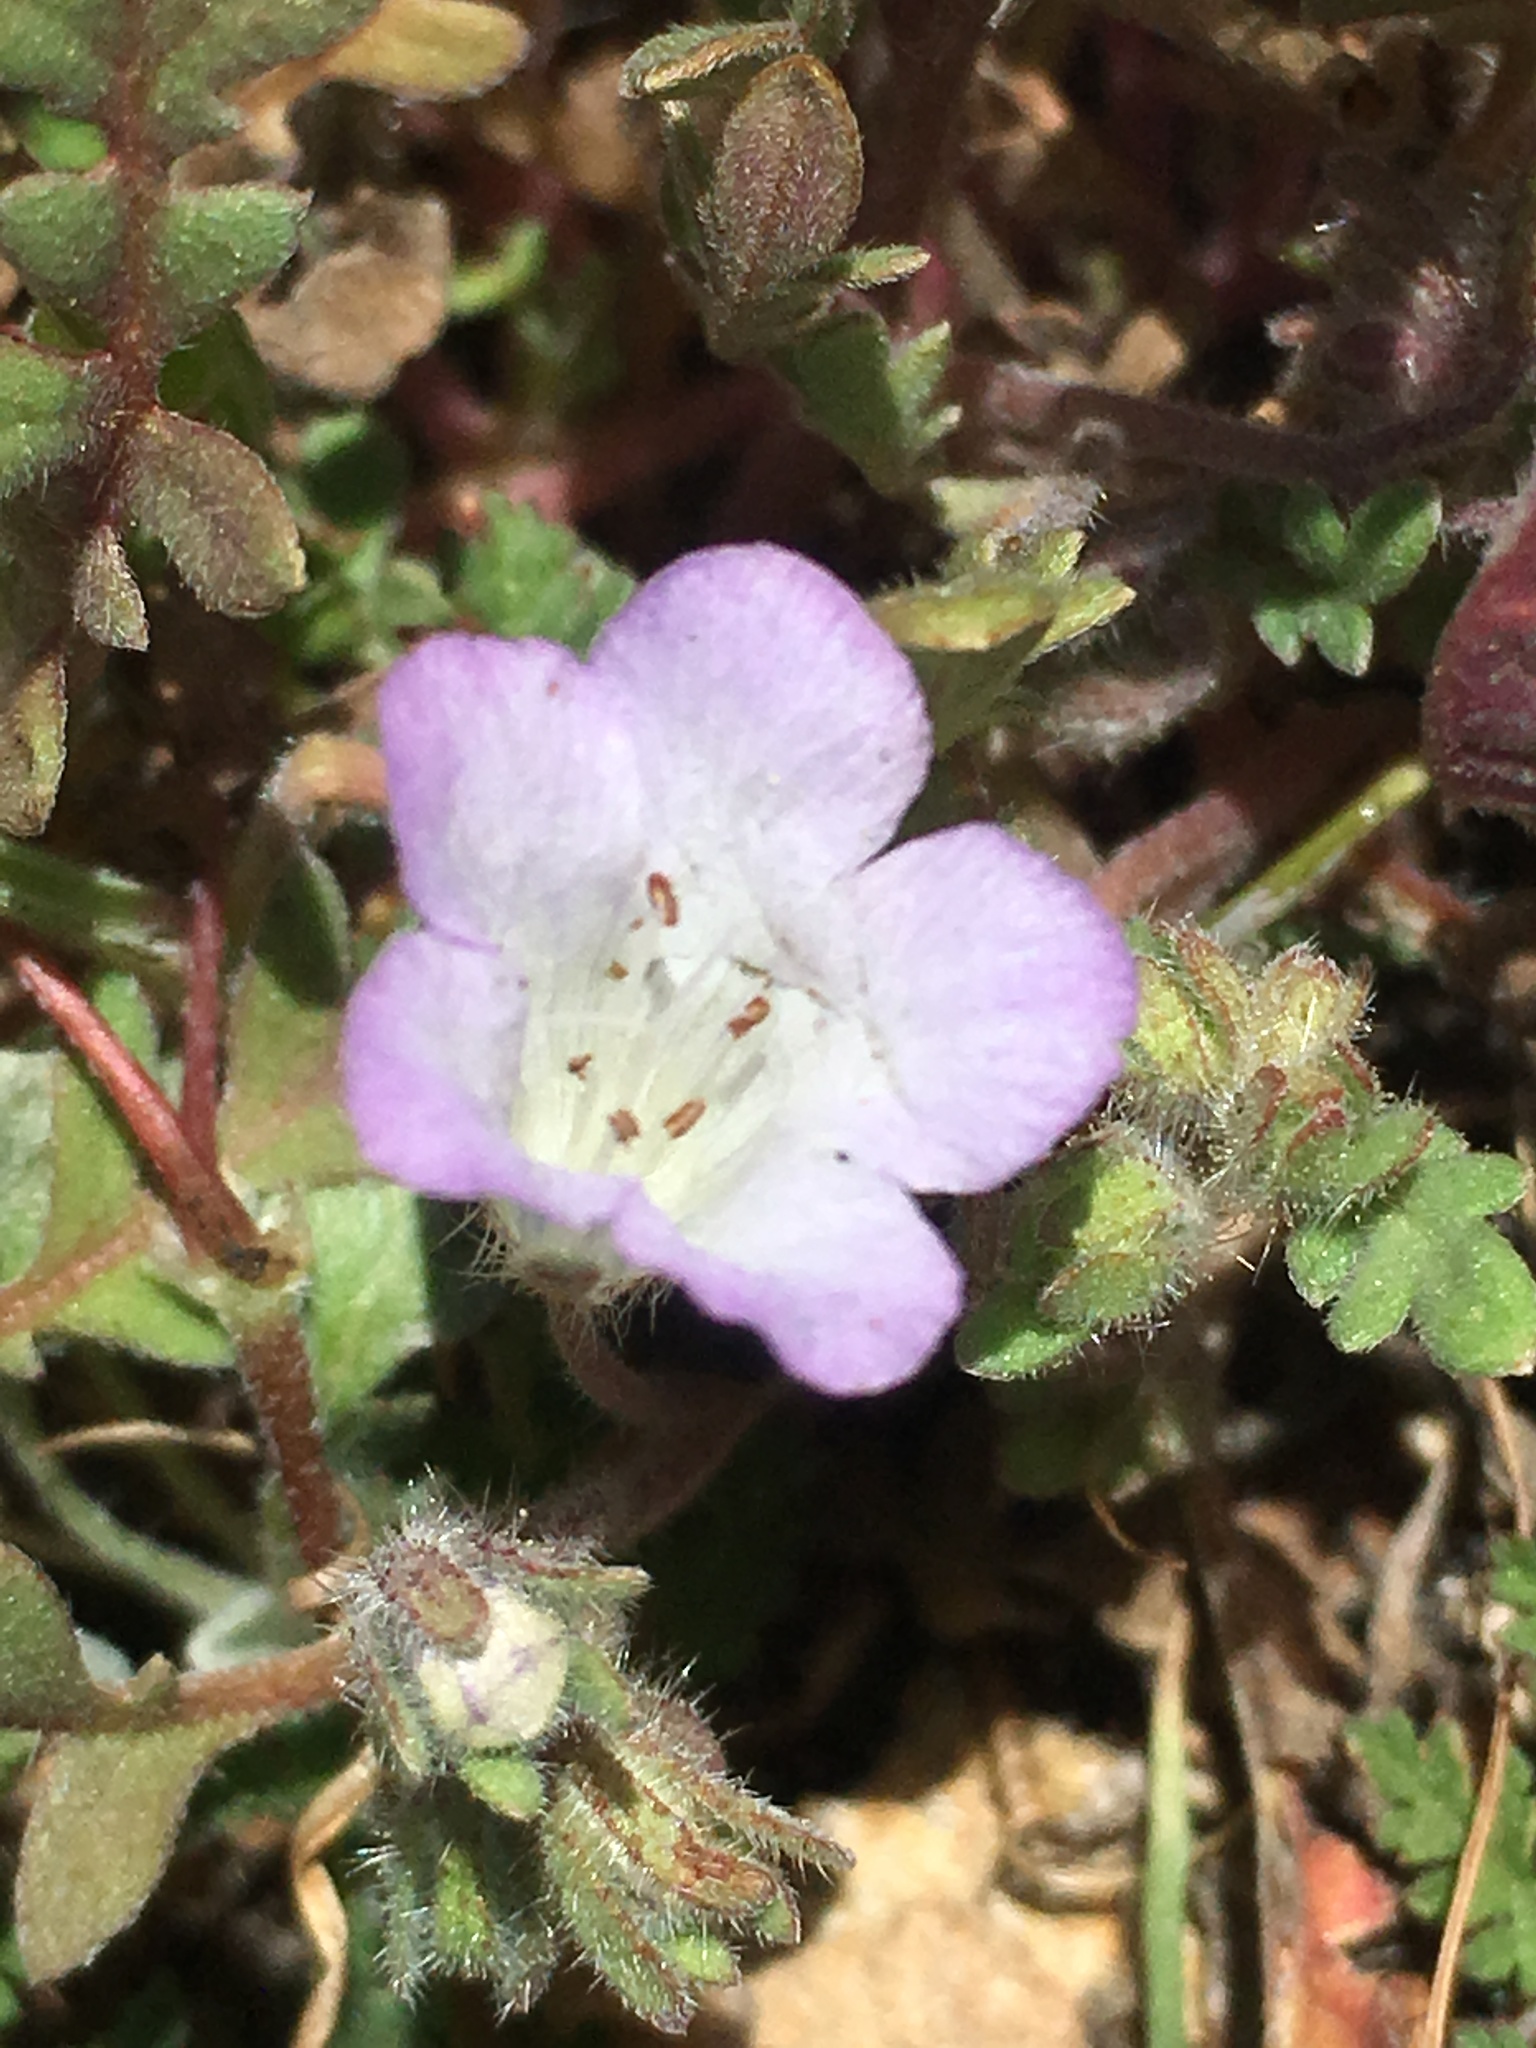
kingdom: Plantae
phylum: Tracheophyta
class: Magnoliopsida
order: Boraginales
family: Hydrophyllaceae
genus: Phacelia
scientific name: Phacelia douglasii
